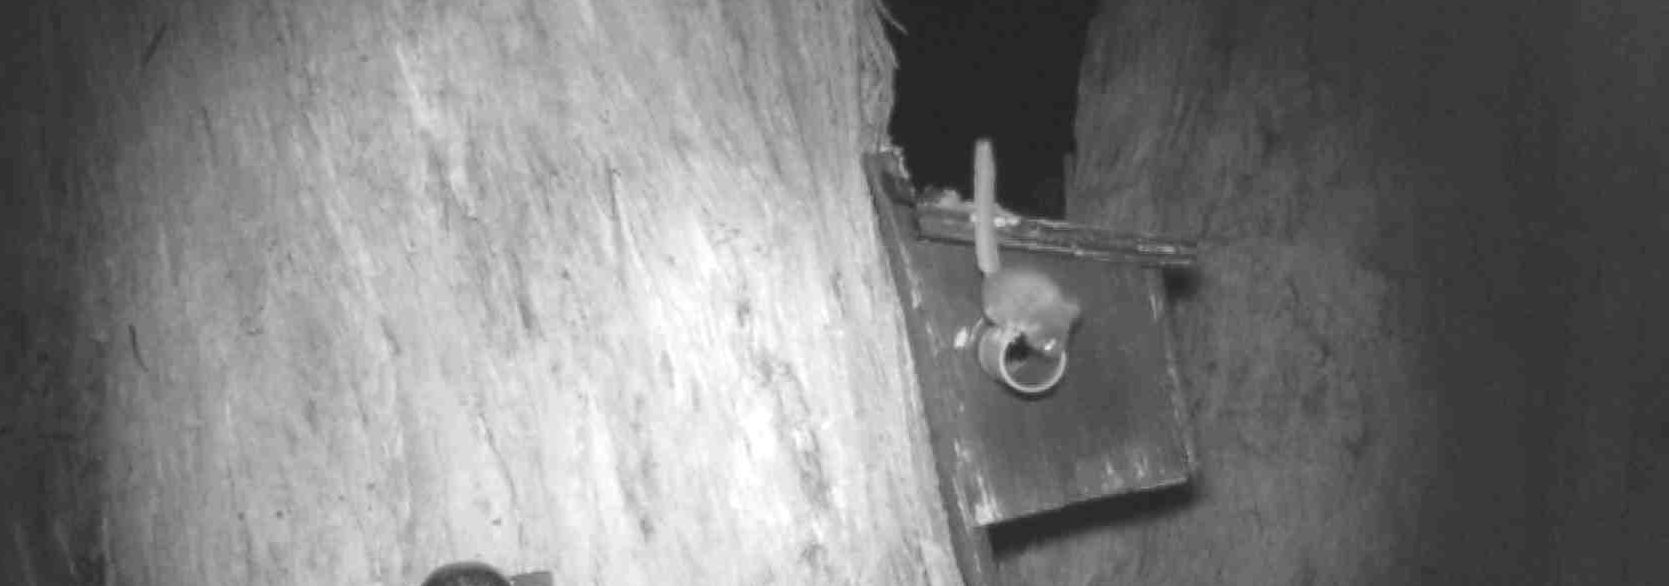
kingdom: Animalia
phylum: Chordata
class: Mammalia
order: Diprotodontia
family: Acrobatidae
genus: Acrobates
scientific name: Acrobates pygmaeus
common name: Feathertail glider
